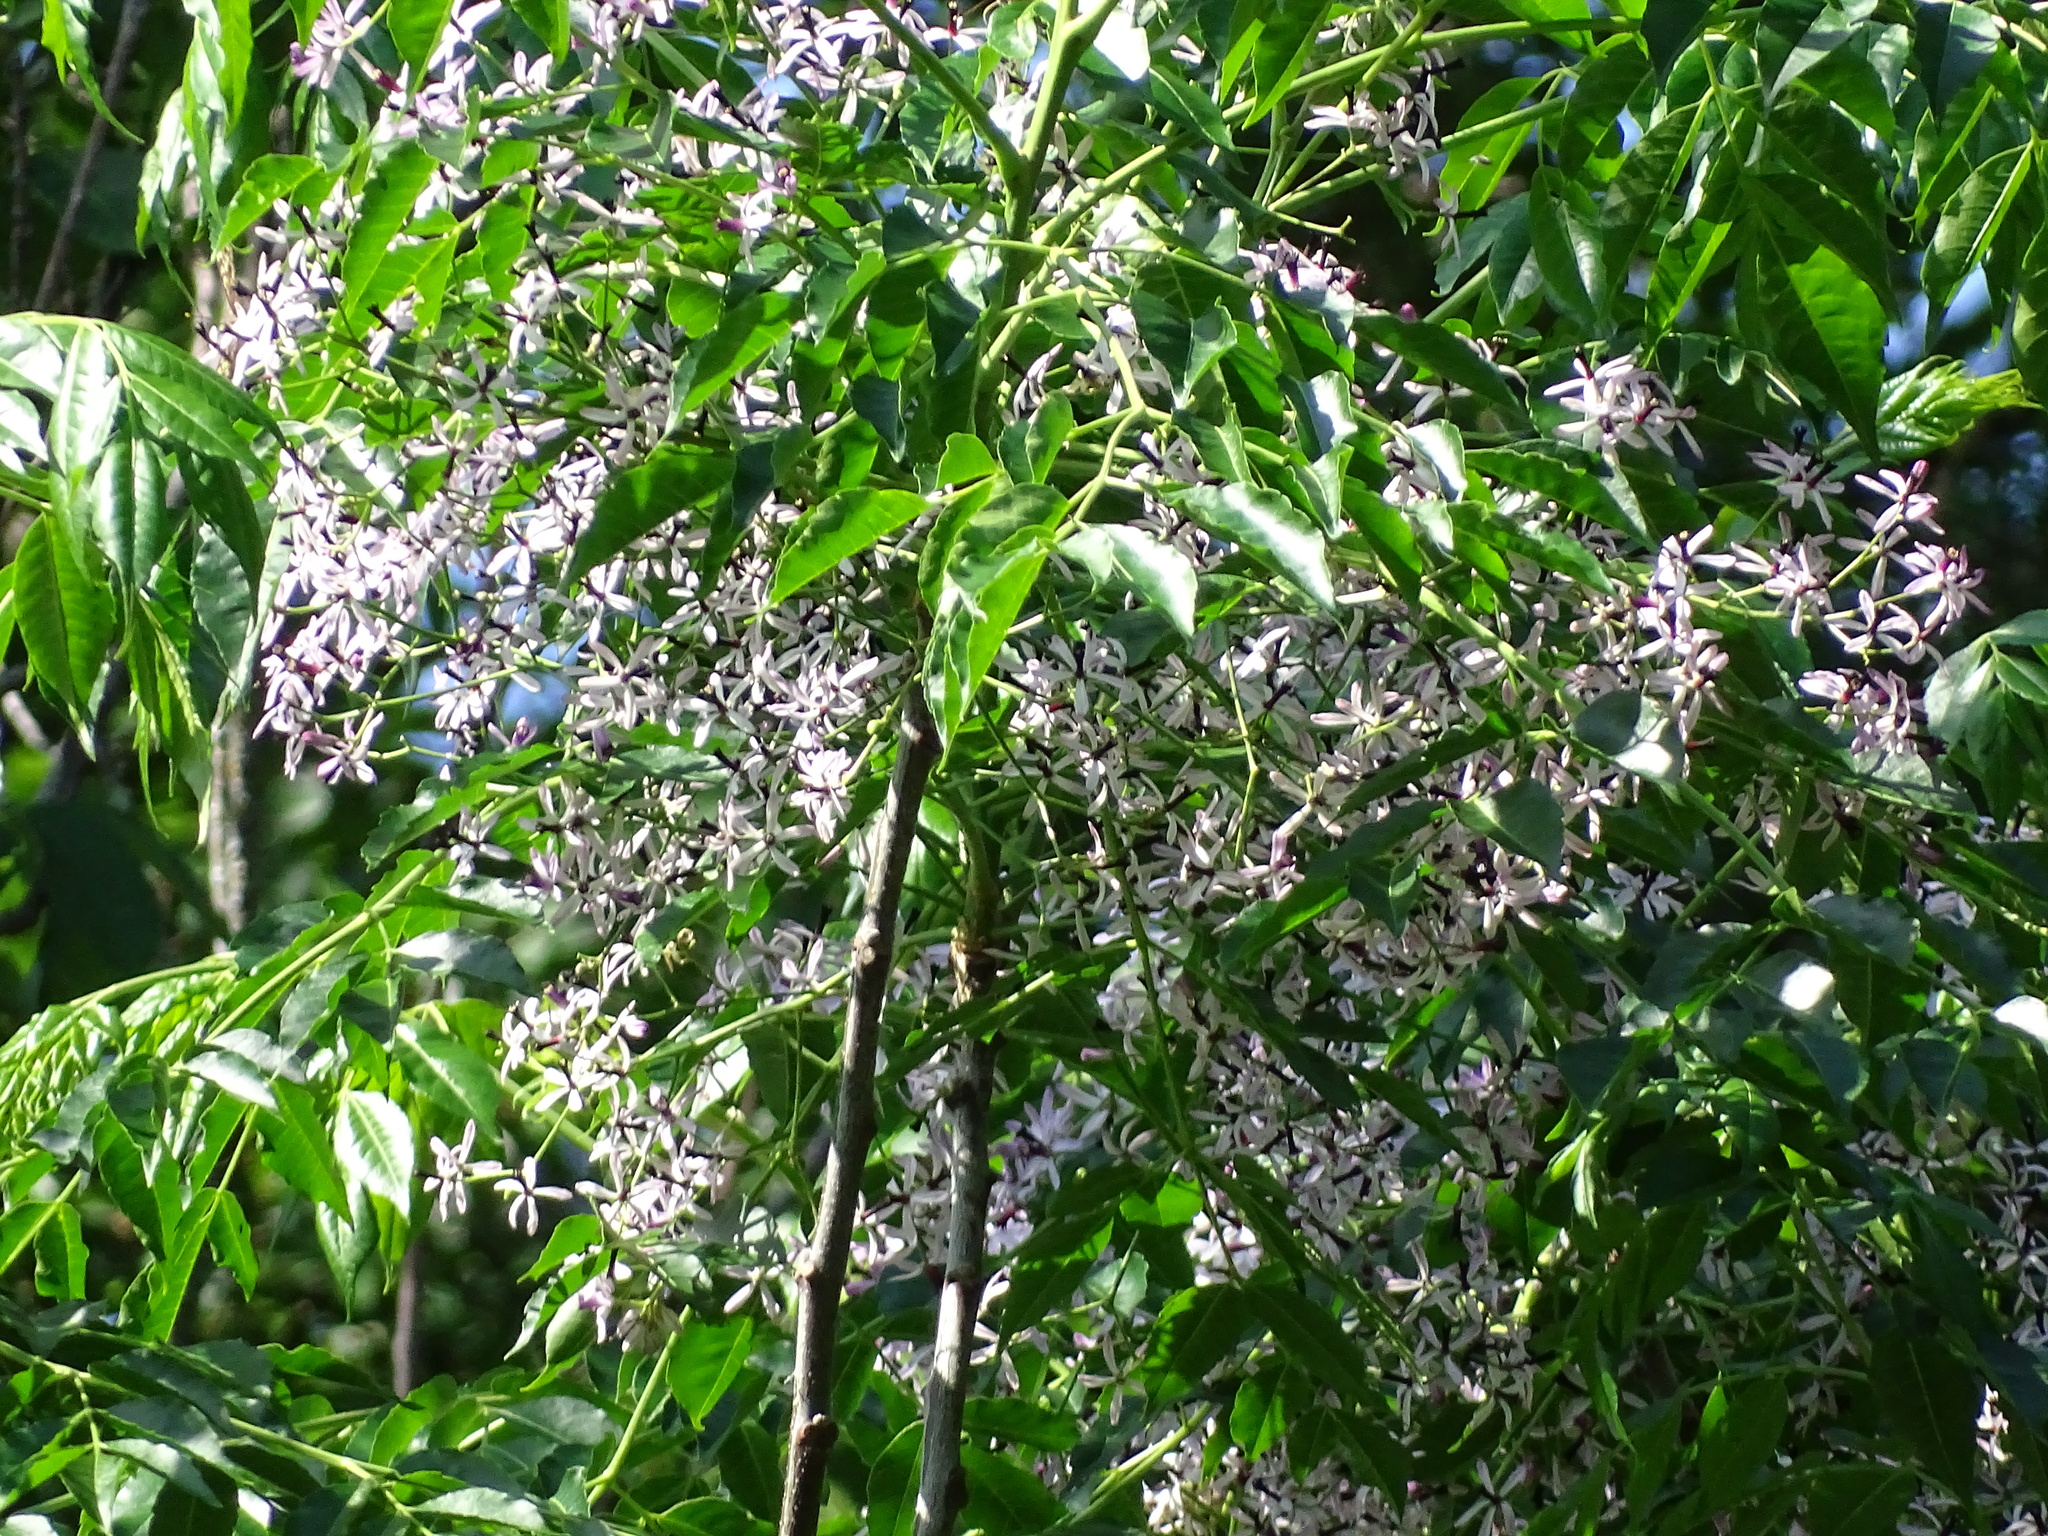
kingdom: Plantae
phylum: Tracheophyta
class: Magnoliopsida
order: Sapindales
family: Meliaceae
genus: Melia
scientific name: Melia azedarach
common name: Chinaberrytree
